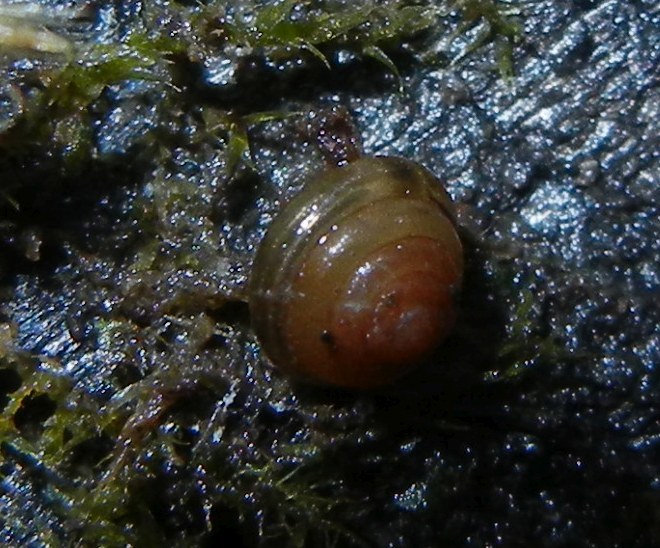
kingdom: Animalia
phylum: Mollusca
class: Gastropoda
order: Stylommatophora
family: Euconulidae
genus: Euconulus
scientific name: Euconulus fulvus
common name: Tawny glass snail
